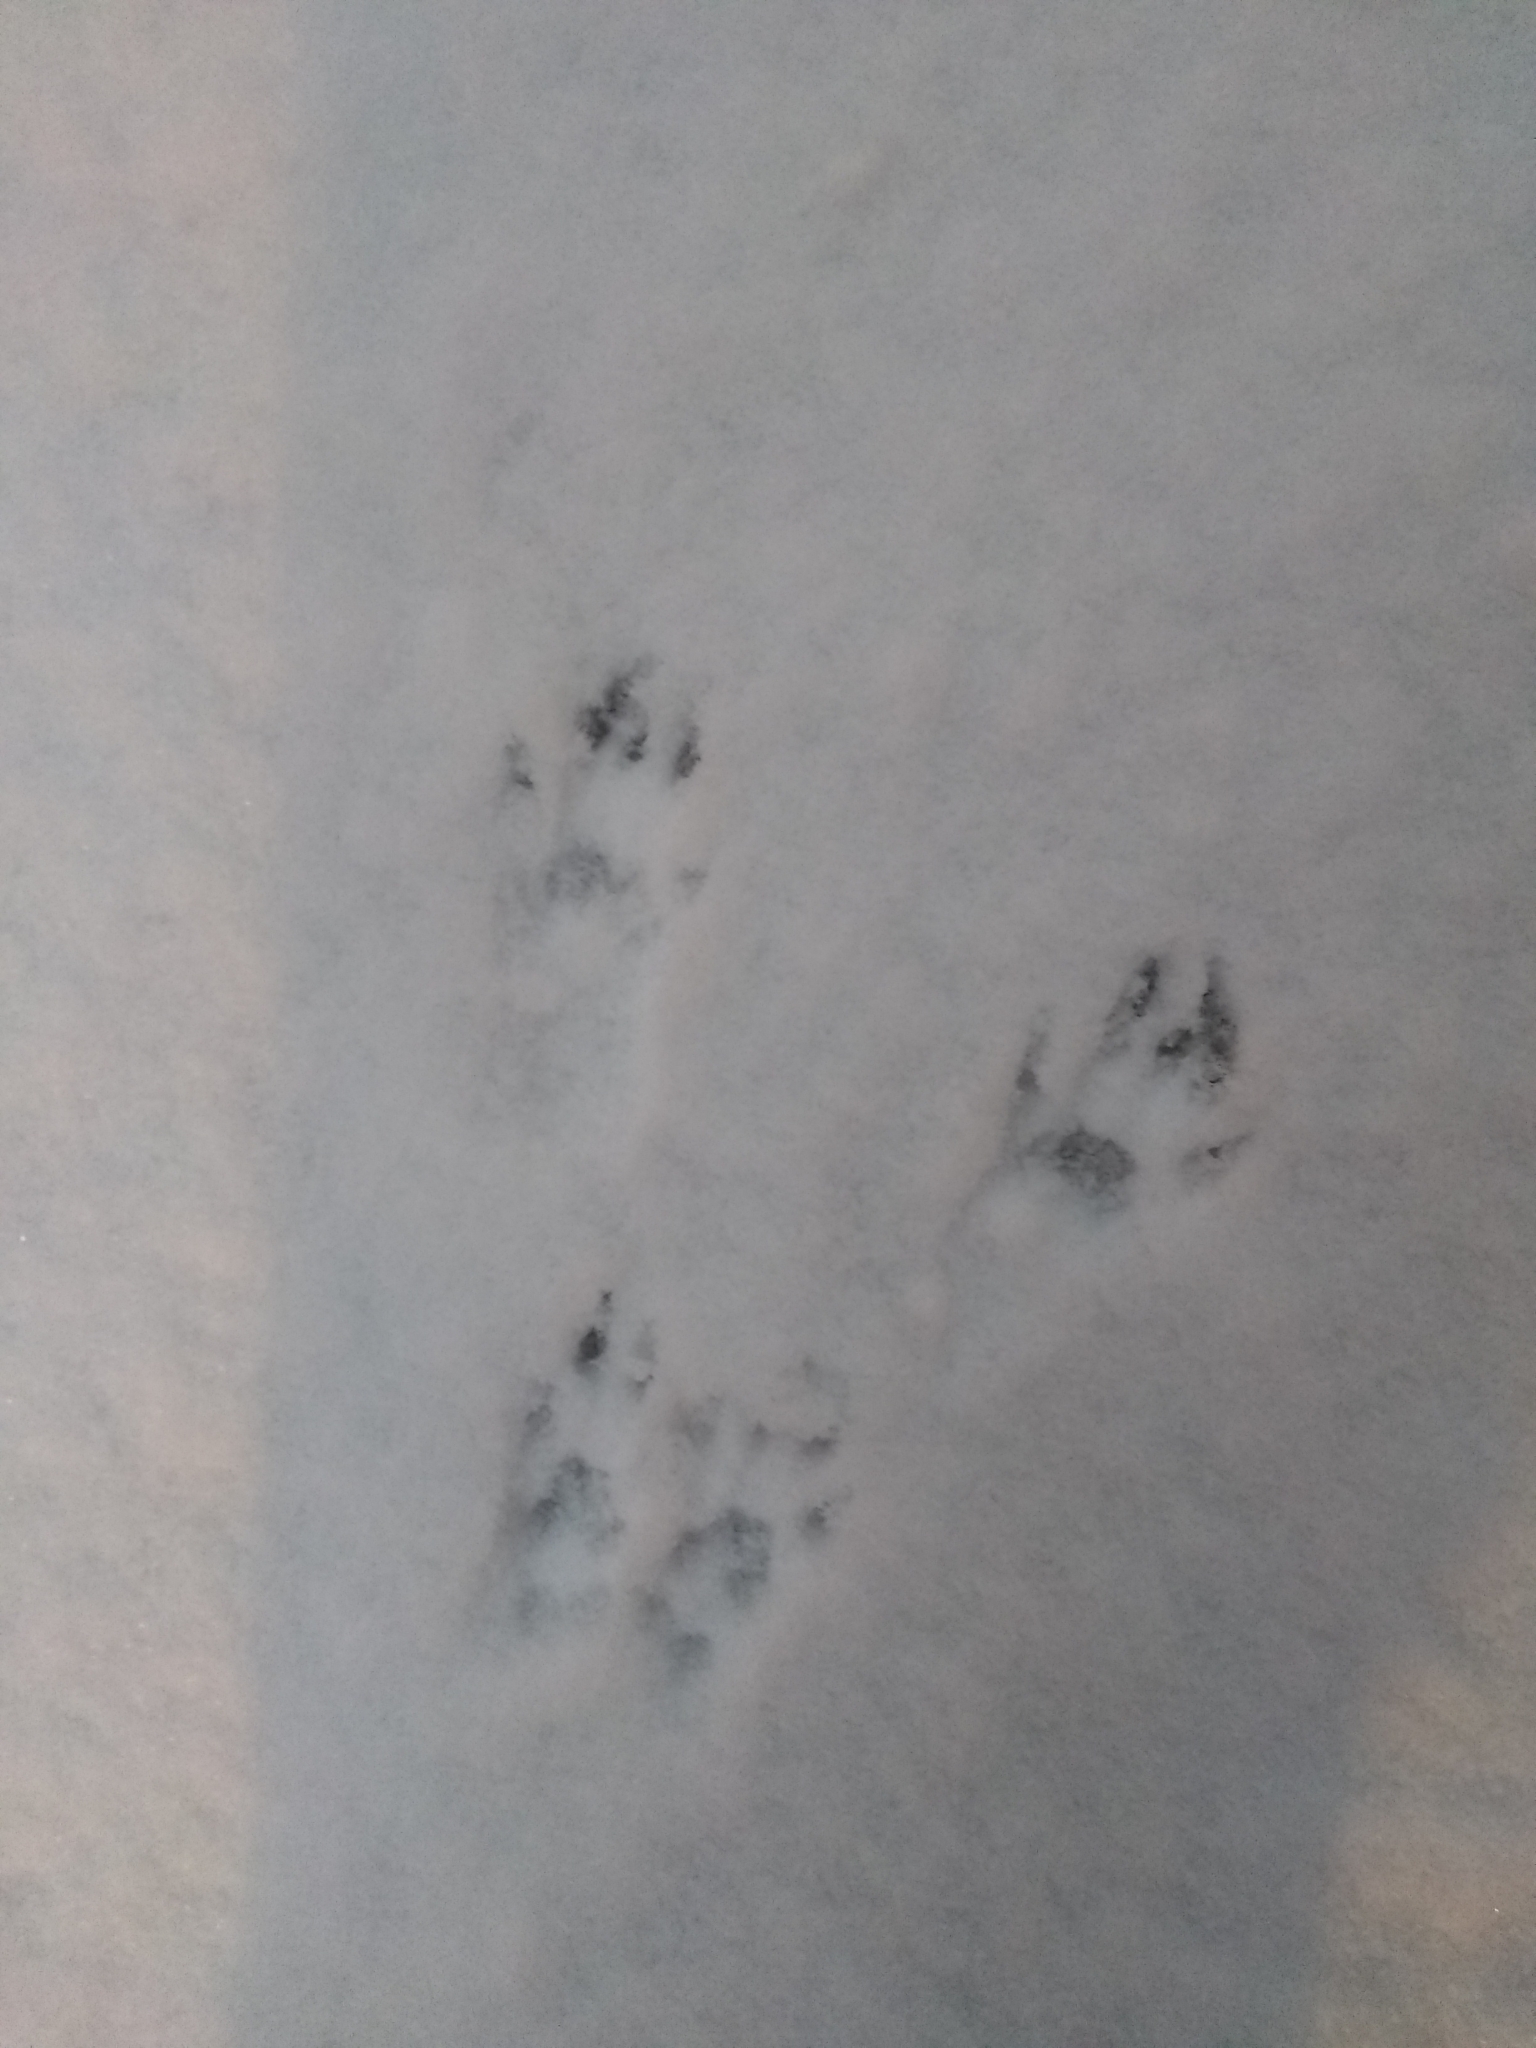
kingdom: Animalia
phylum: Chordata
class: Mammalia
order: Rodentia
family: Sciuridae
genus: Sciurus
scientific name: Sciurus carolinensis
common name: Eastern gray squirrel
